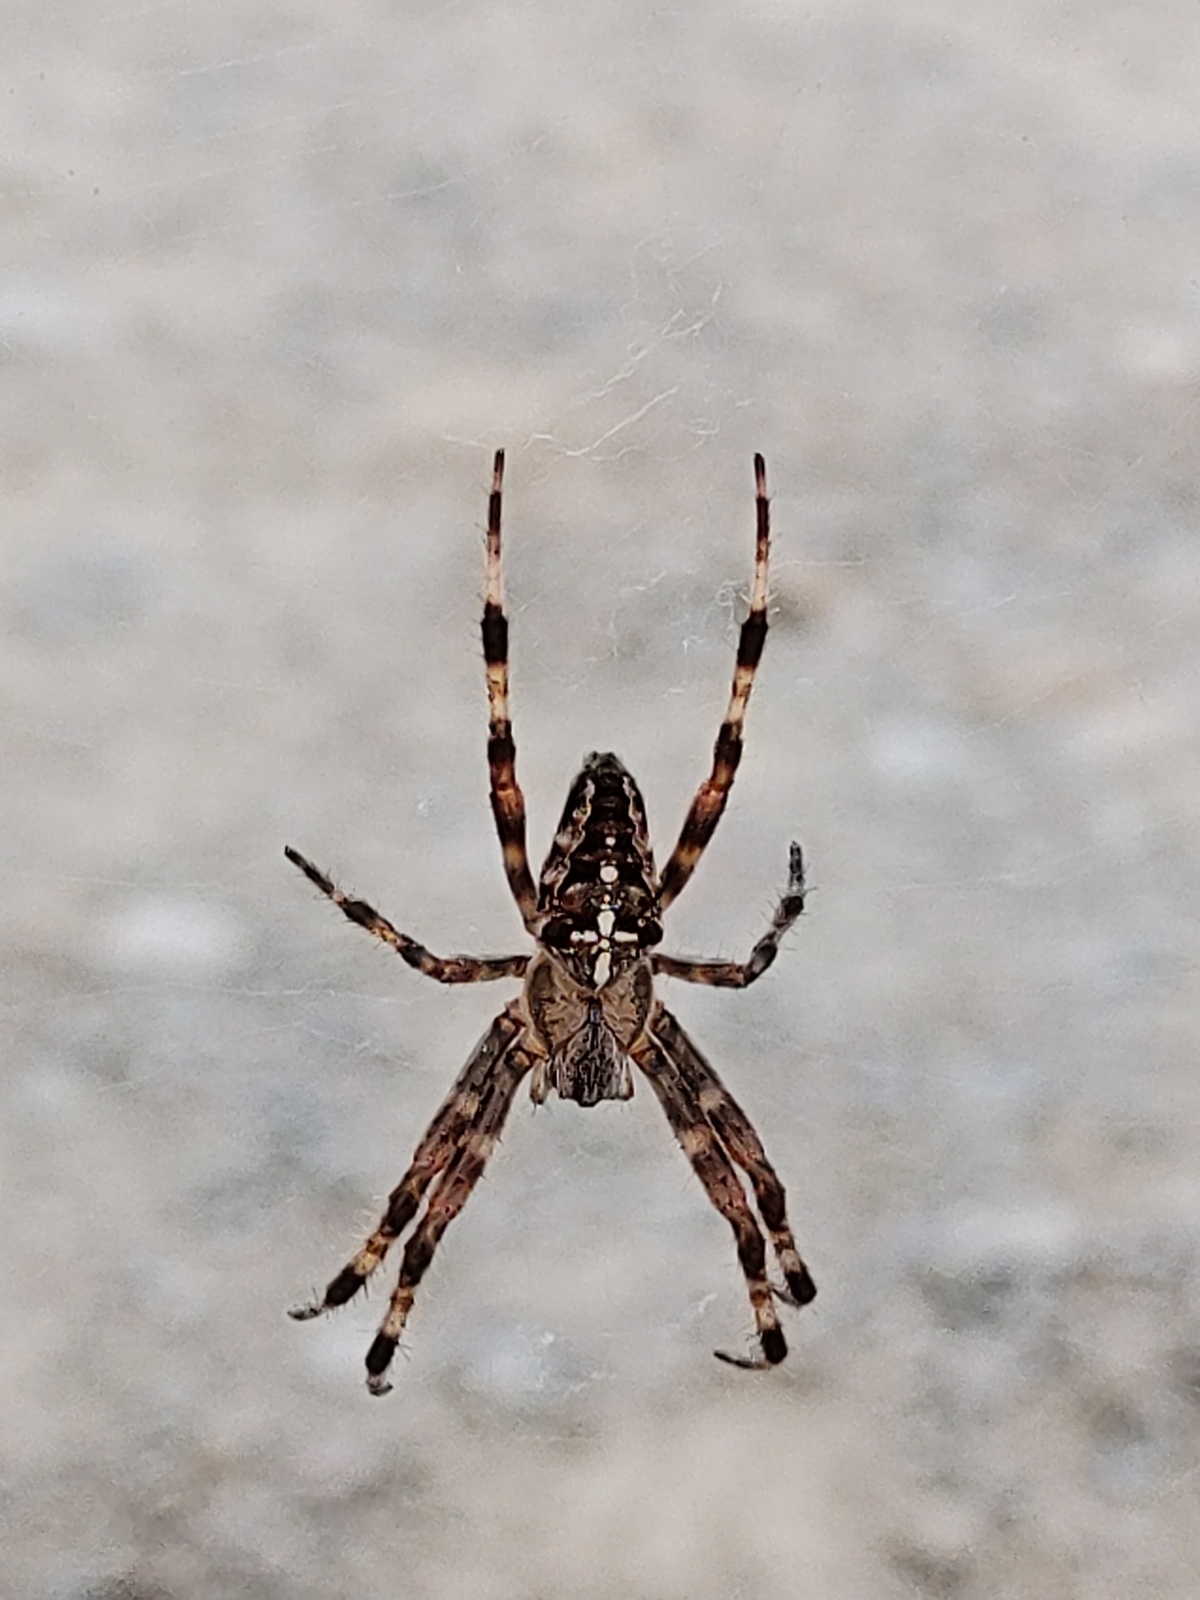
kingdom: Animalia
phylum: Arthropoda
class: Arachnida
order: Araneae
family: Araneidae
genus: Araneus
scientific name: Araneus diadematus
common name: Cross orbweaver
